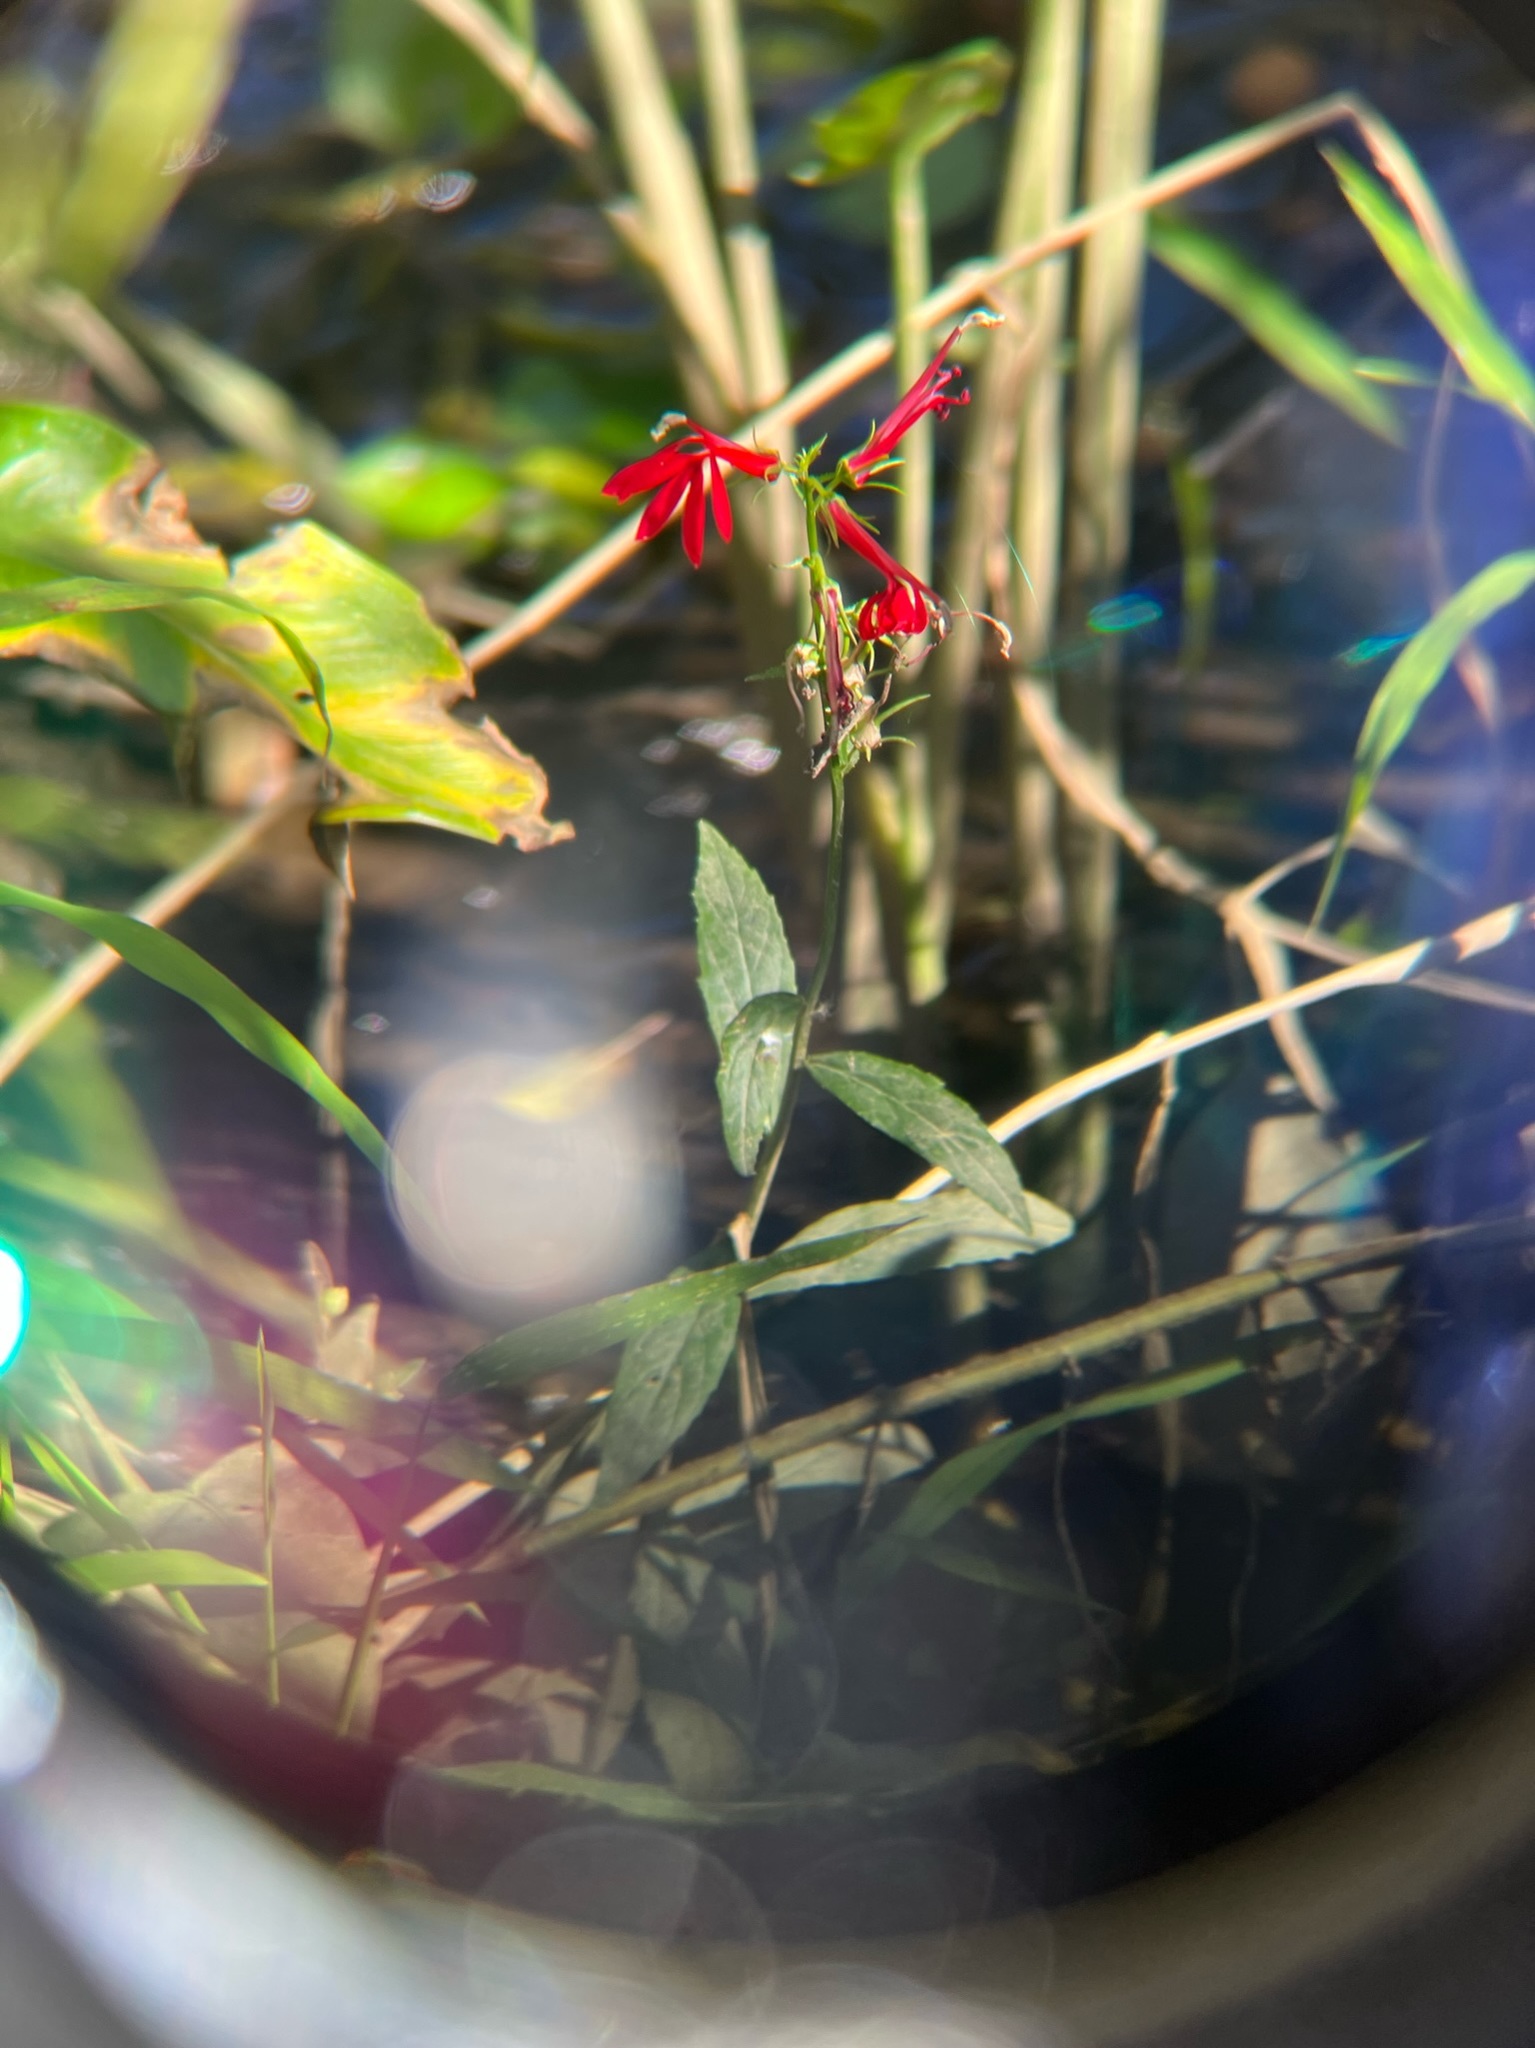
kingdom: Plantae
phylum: Tracheophyta
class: Magnoliopsida
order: Asterales
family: Campanulaceae
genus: Lobelia
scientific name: Lobelia cardinalis
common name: Cardinal flower
